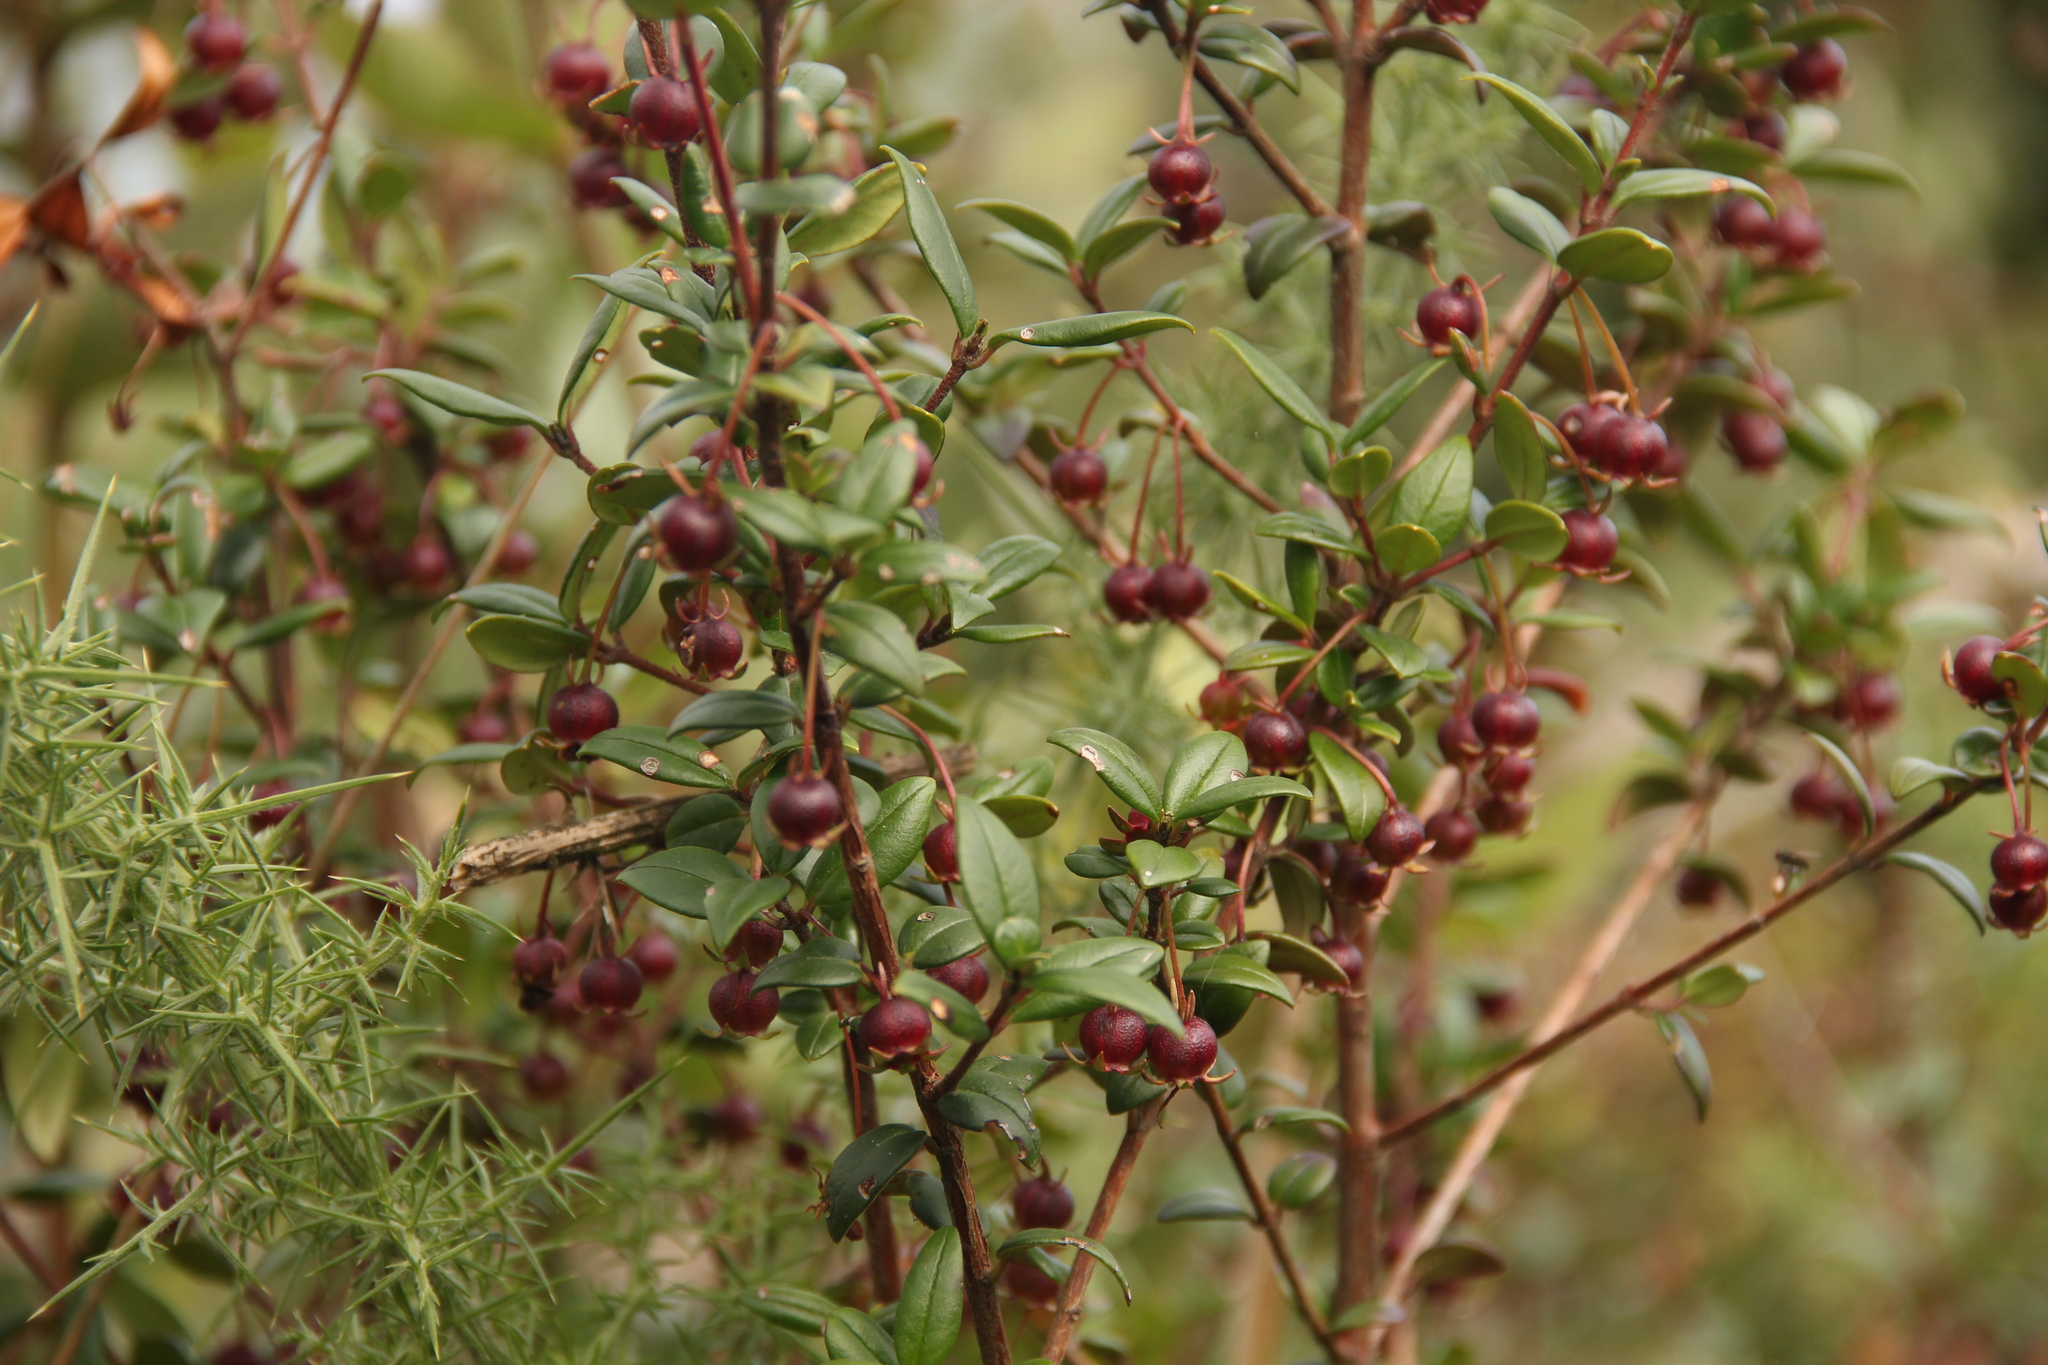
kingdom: Plantae
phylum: Tracheophyta
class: Magnoliopsida
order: Myrtales
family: Myrtaceae
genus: Ugni
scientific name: Ugni molinae
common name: Chilean-guava
